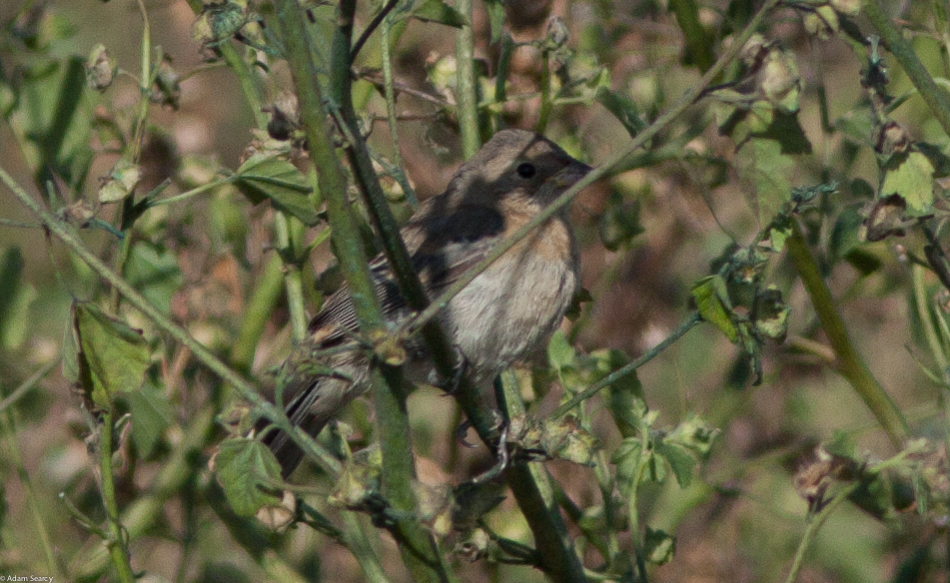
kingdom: Animalia
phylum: Chordata
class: Aves
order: Passeriformes
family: Cardinalidae
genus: Passerina
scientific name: Passerina amoena
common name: Lazuli bunting
